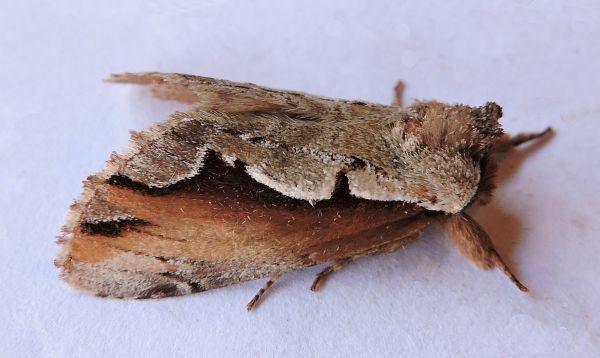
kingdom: Animalia
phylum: Arthropoda
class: Insecta
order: Lepidoptera
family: Notodontidae
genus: Nerice
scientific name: Nerice bidentata
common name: Double-toothed prominent
